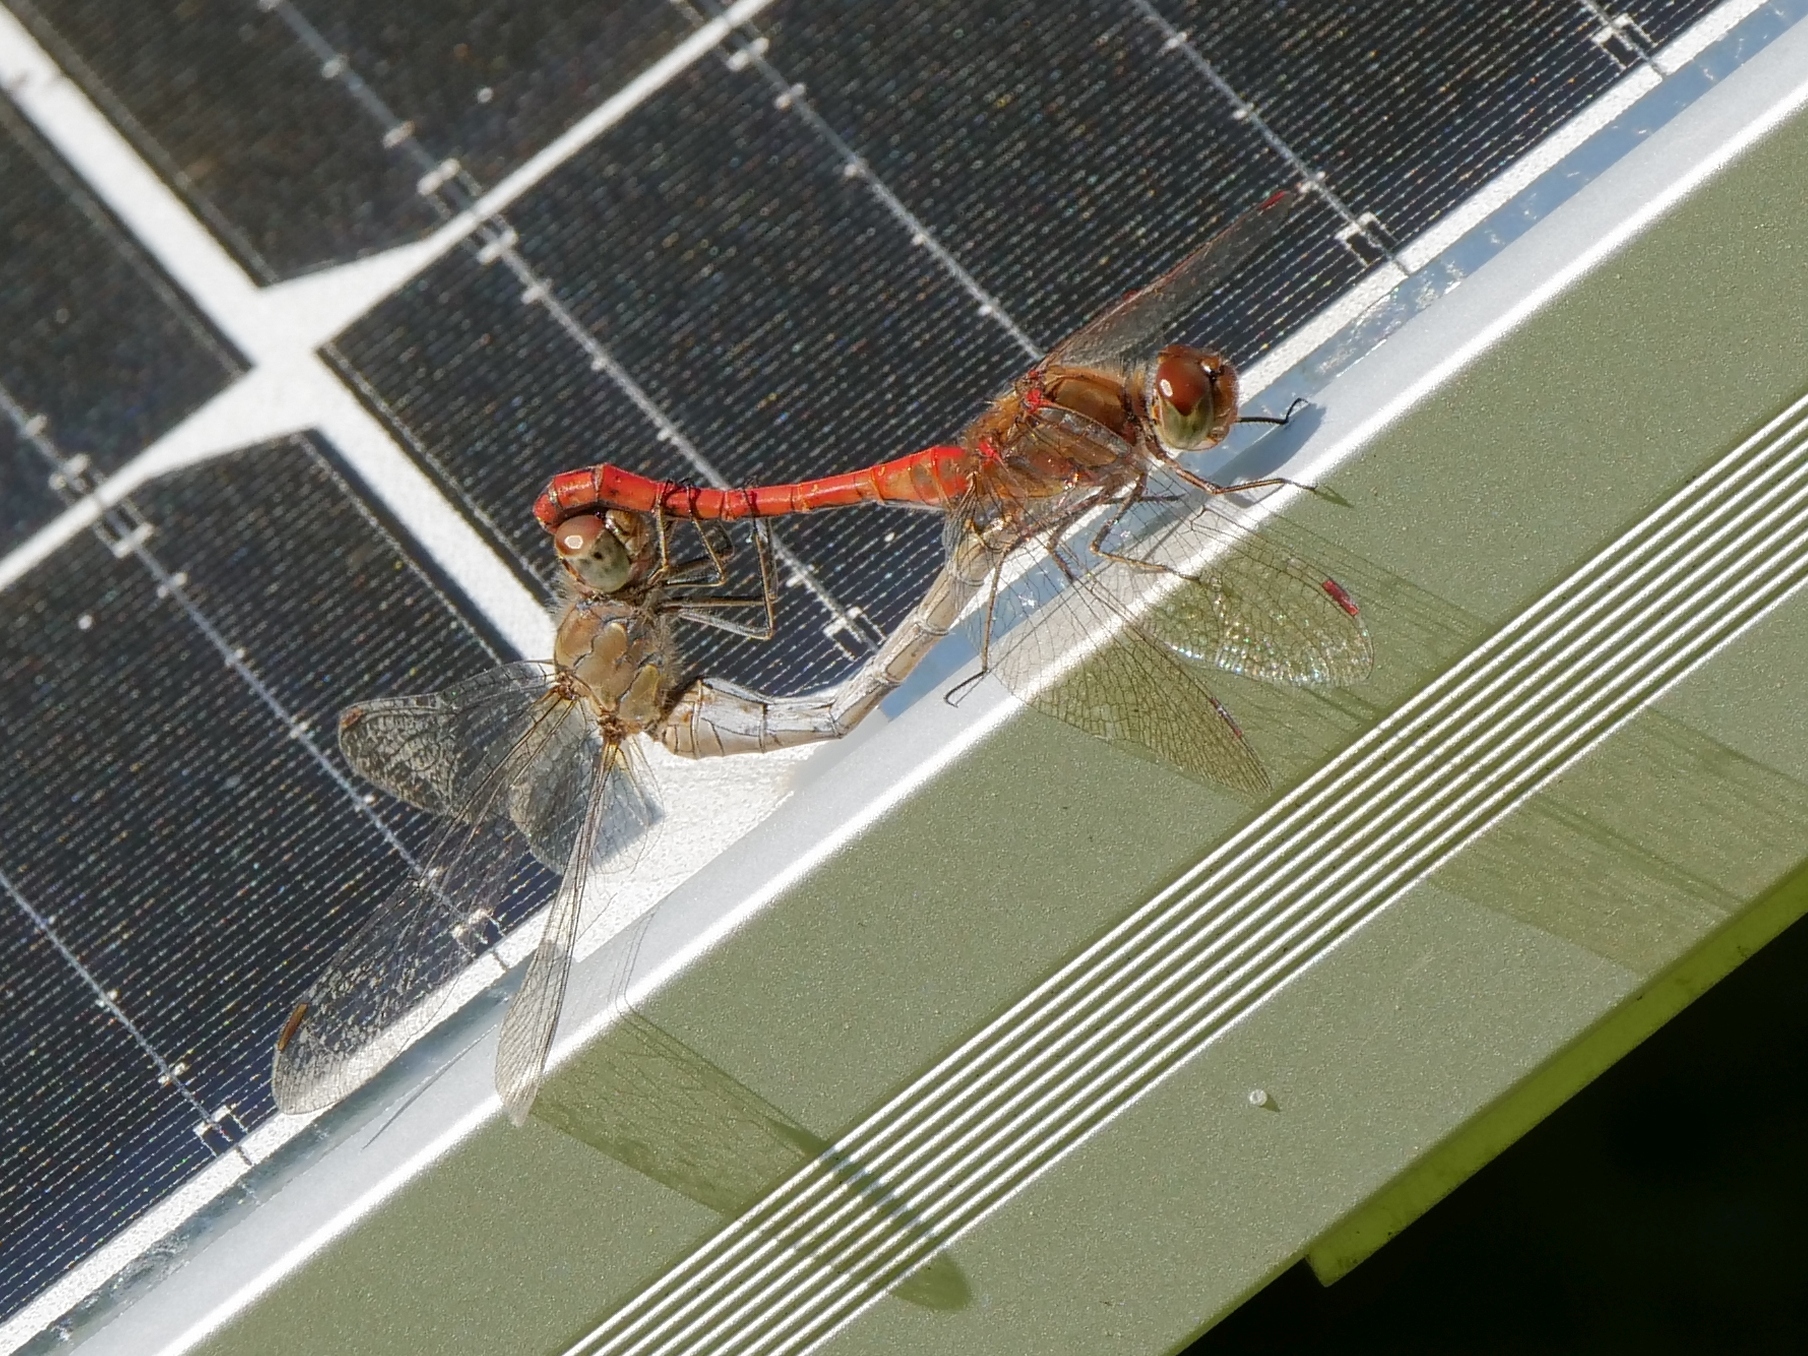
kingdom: Animalia
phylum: Arthropoda
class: Insecta
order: Odonata
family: Libellulidae
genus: Sympetrum
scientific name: Sympetrum striolatum
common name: Common darter
